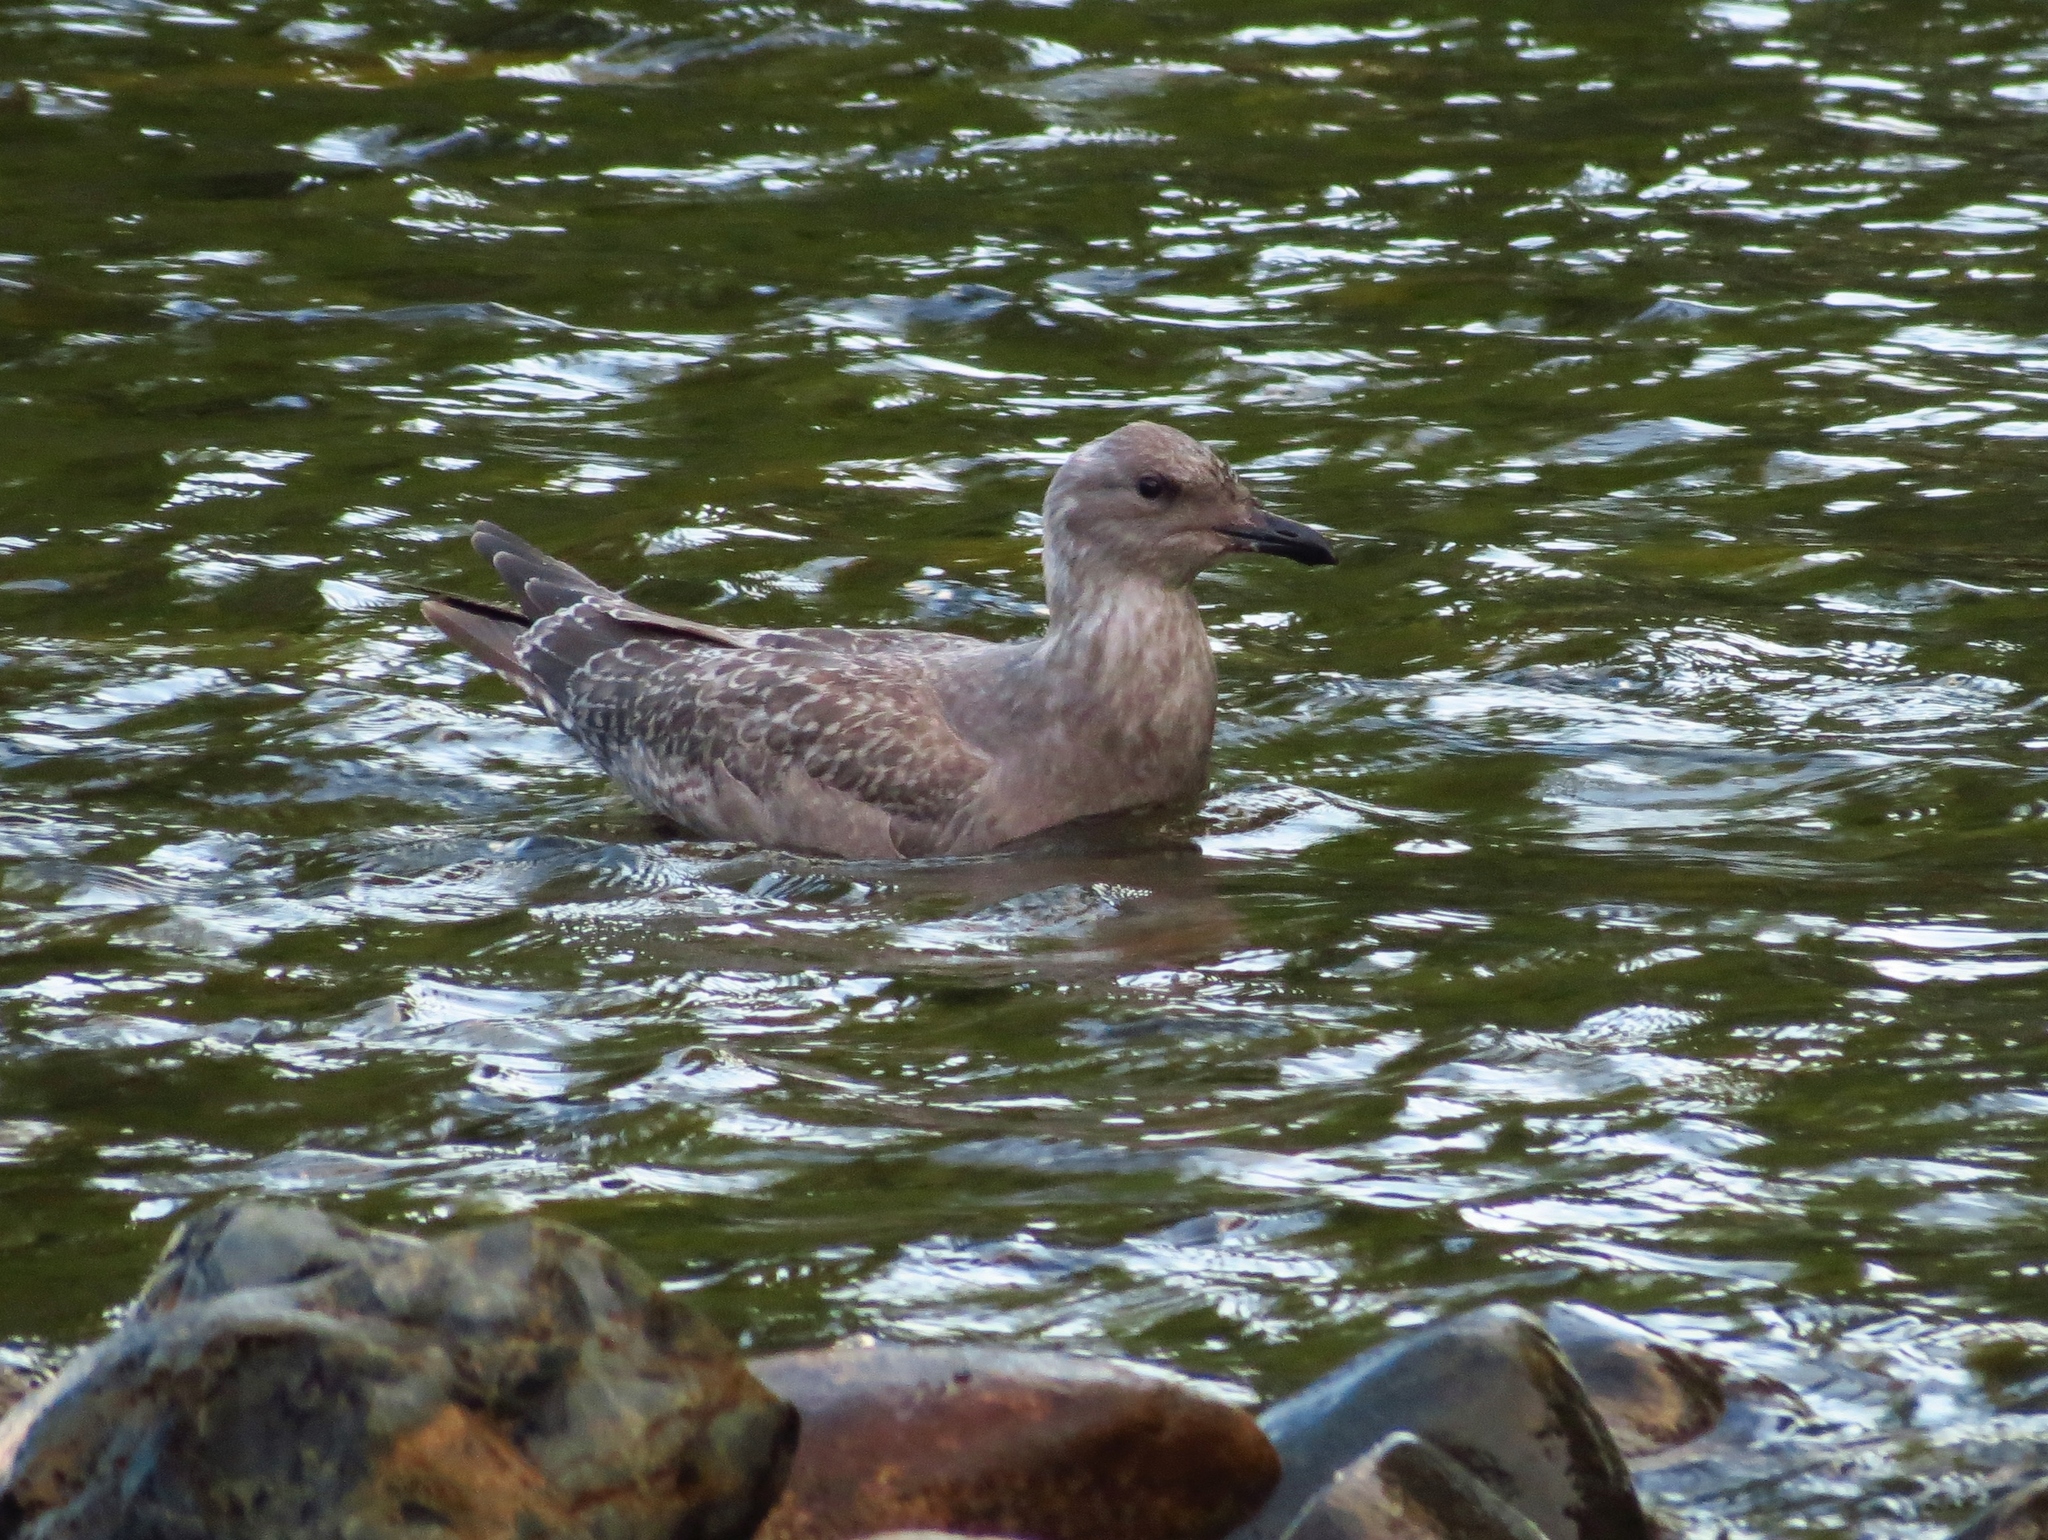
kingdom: Animalia
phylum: Chordata
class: Aves
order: Charadriiformes
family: Laridae
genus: Larus
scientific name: Larus argentatus
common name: Herring gull
